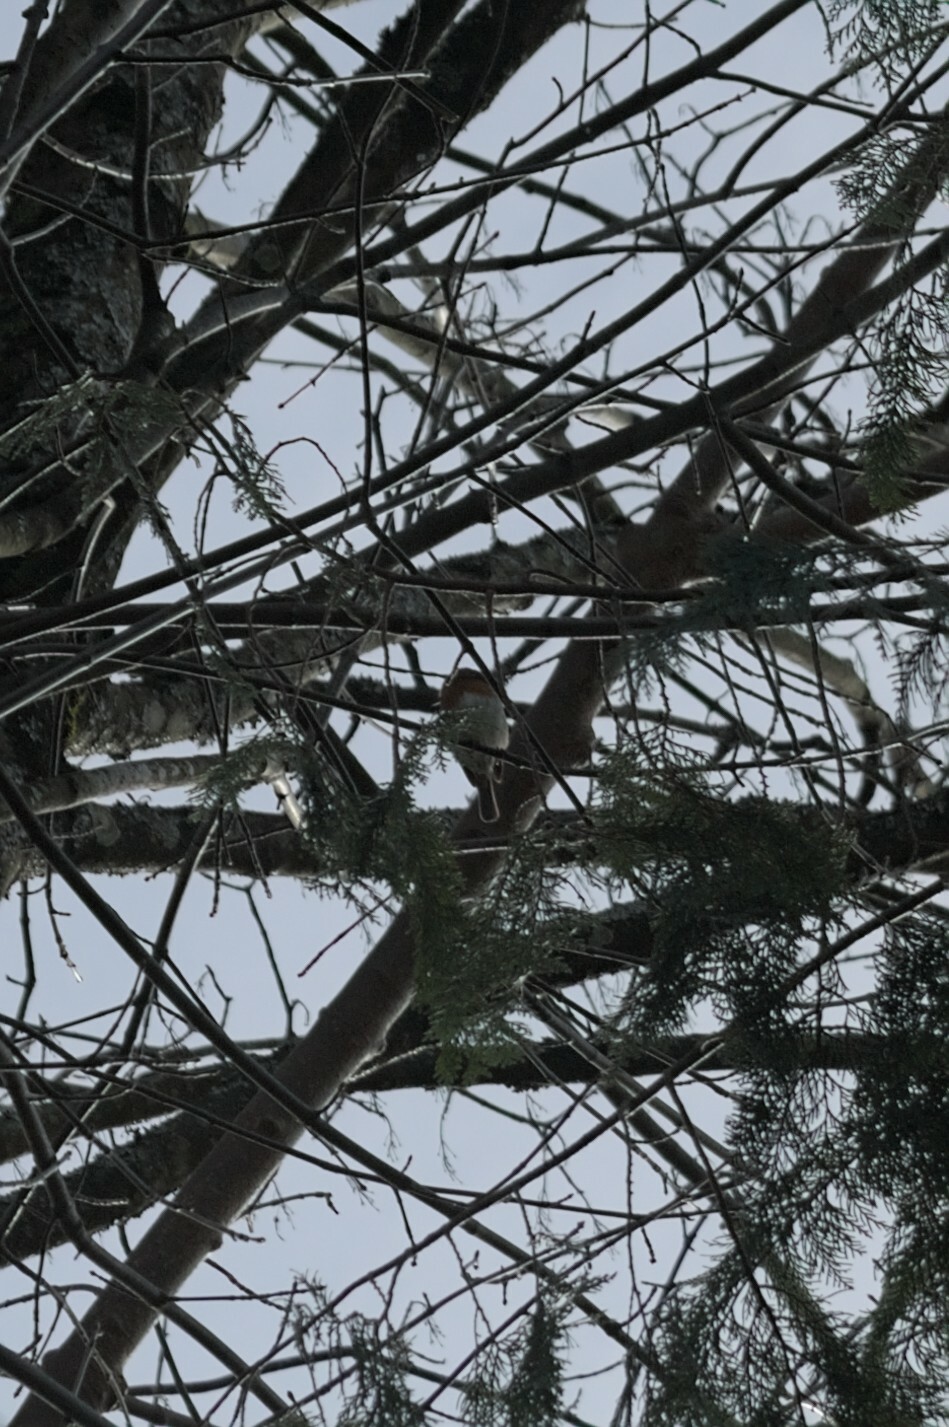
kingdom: Animalia
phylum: Chordata
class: Aves
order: Passeriformes
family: Muscicapidae
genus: Erithacus
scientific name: Erithacus rubecula
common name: European robin
